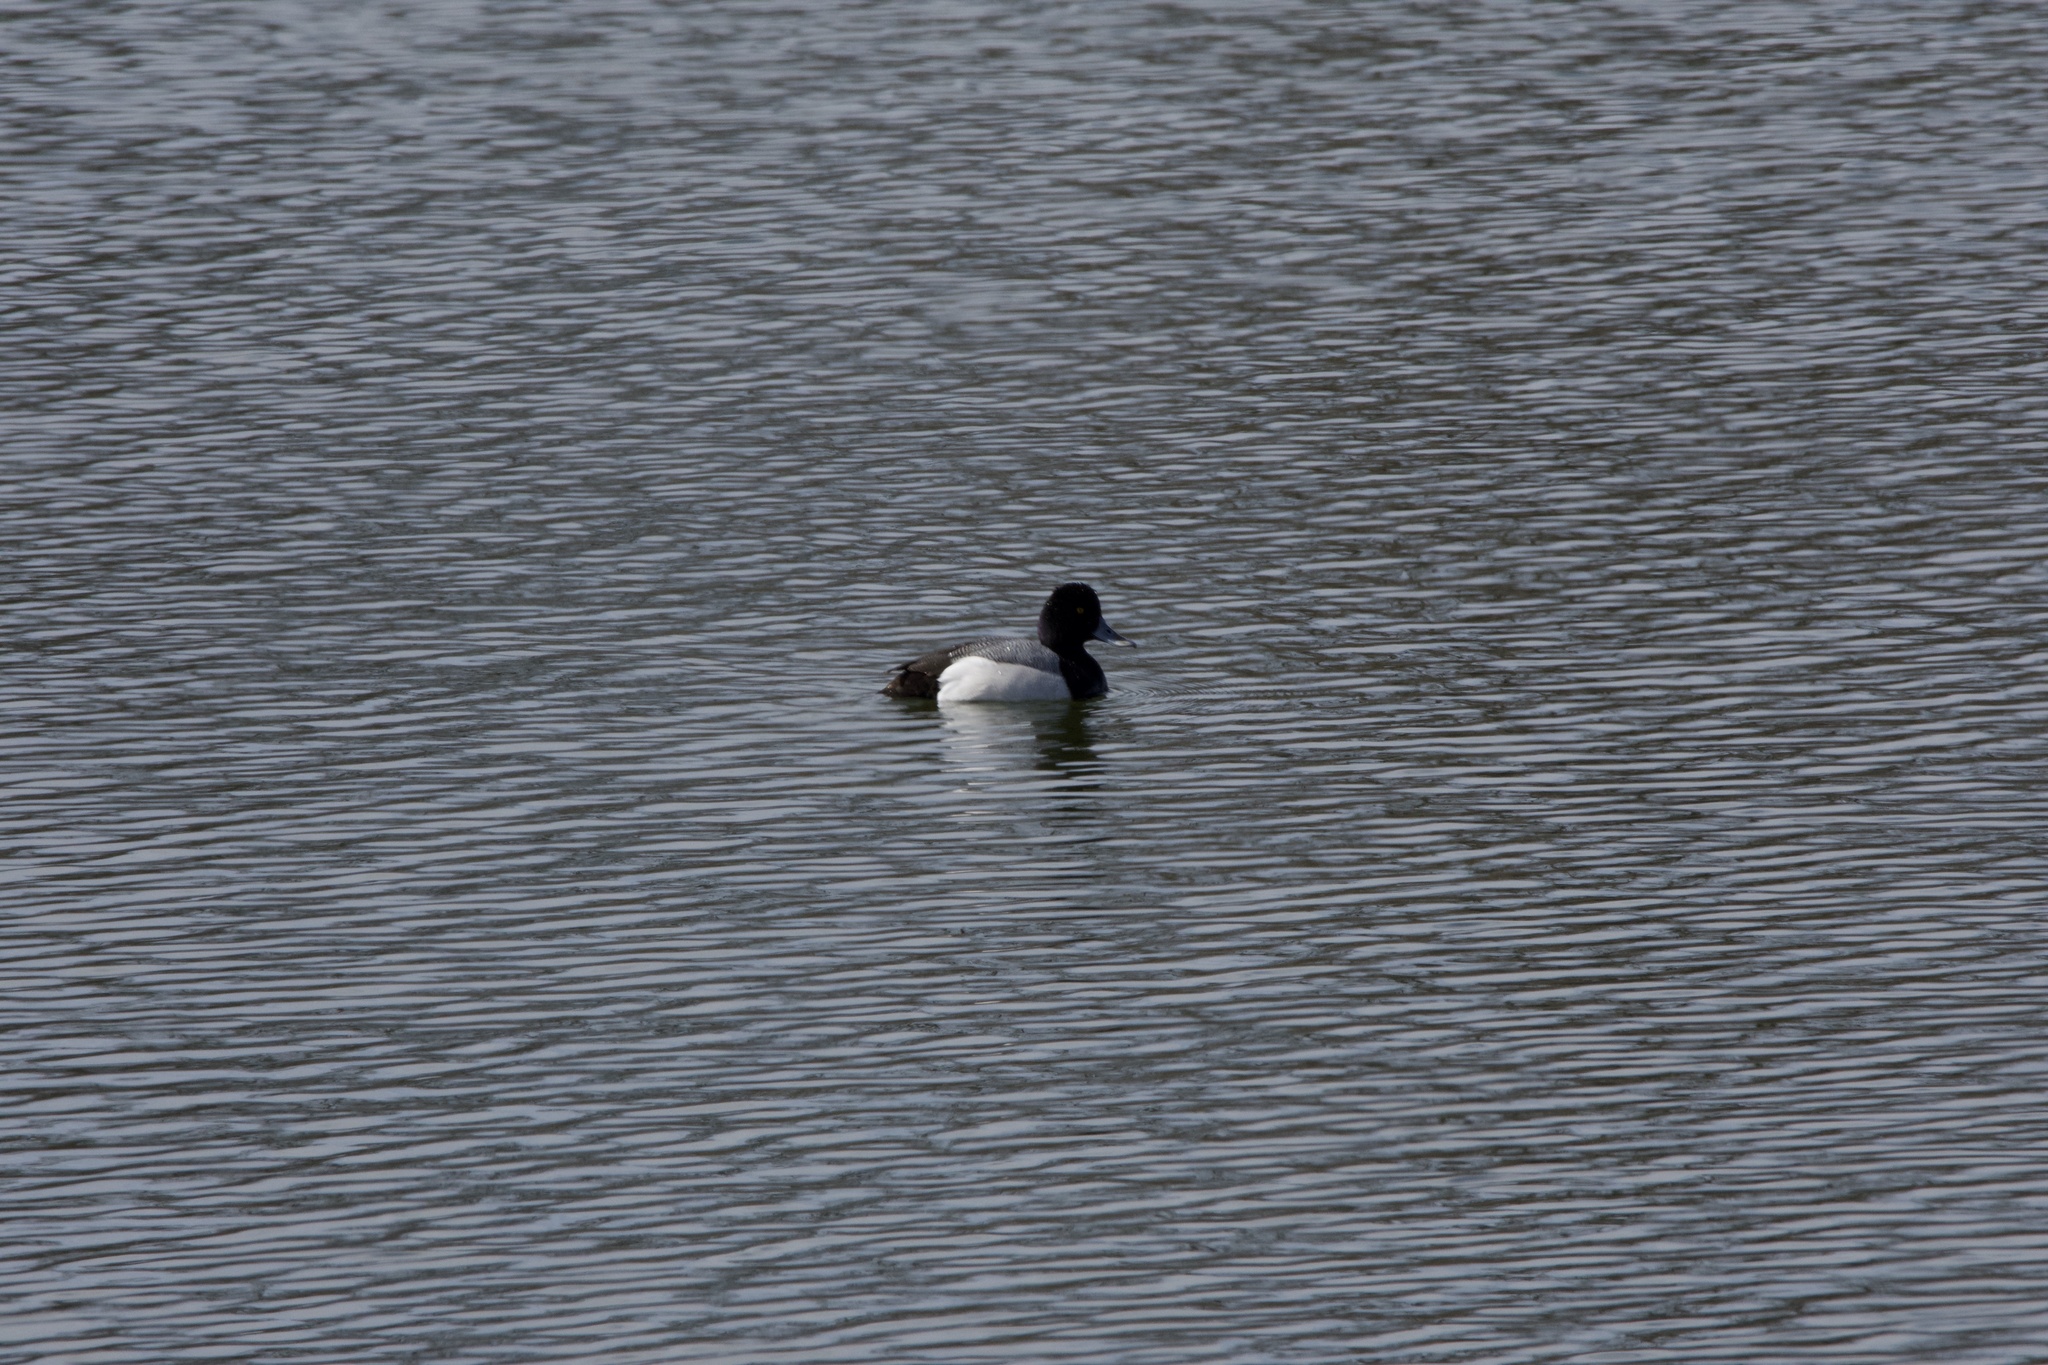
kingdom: Animalia
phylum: Chordata
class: Aves
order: Anseriformes
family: Anatidae
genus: Aythya
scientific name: Aythya affinis
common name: Lesser scaup
